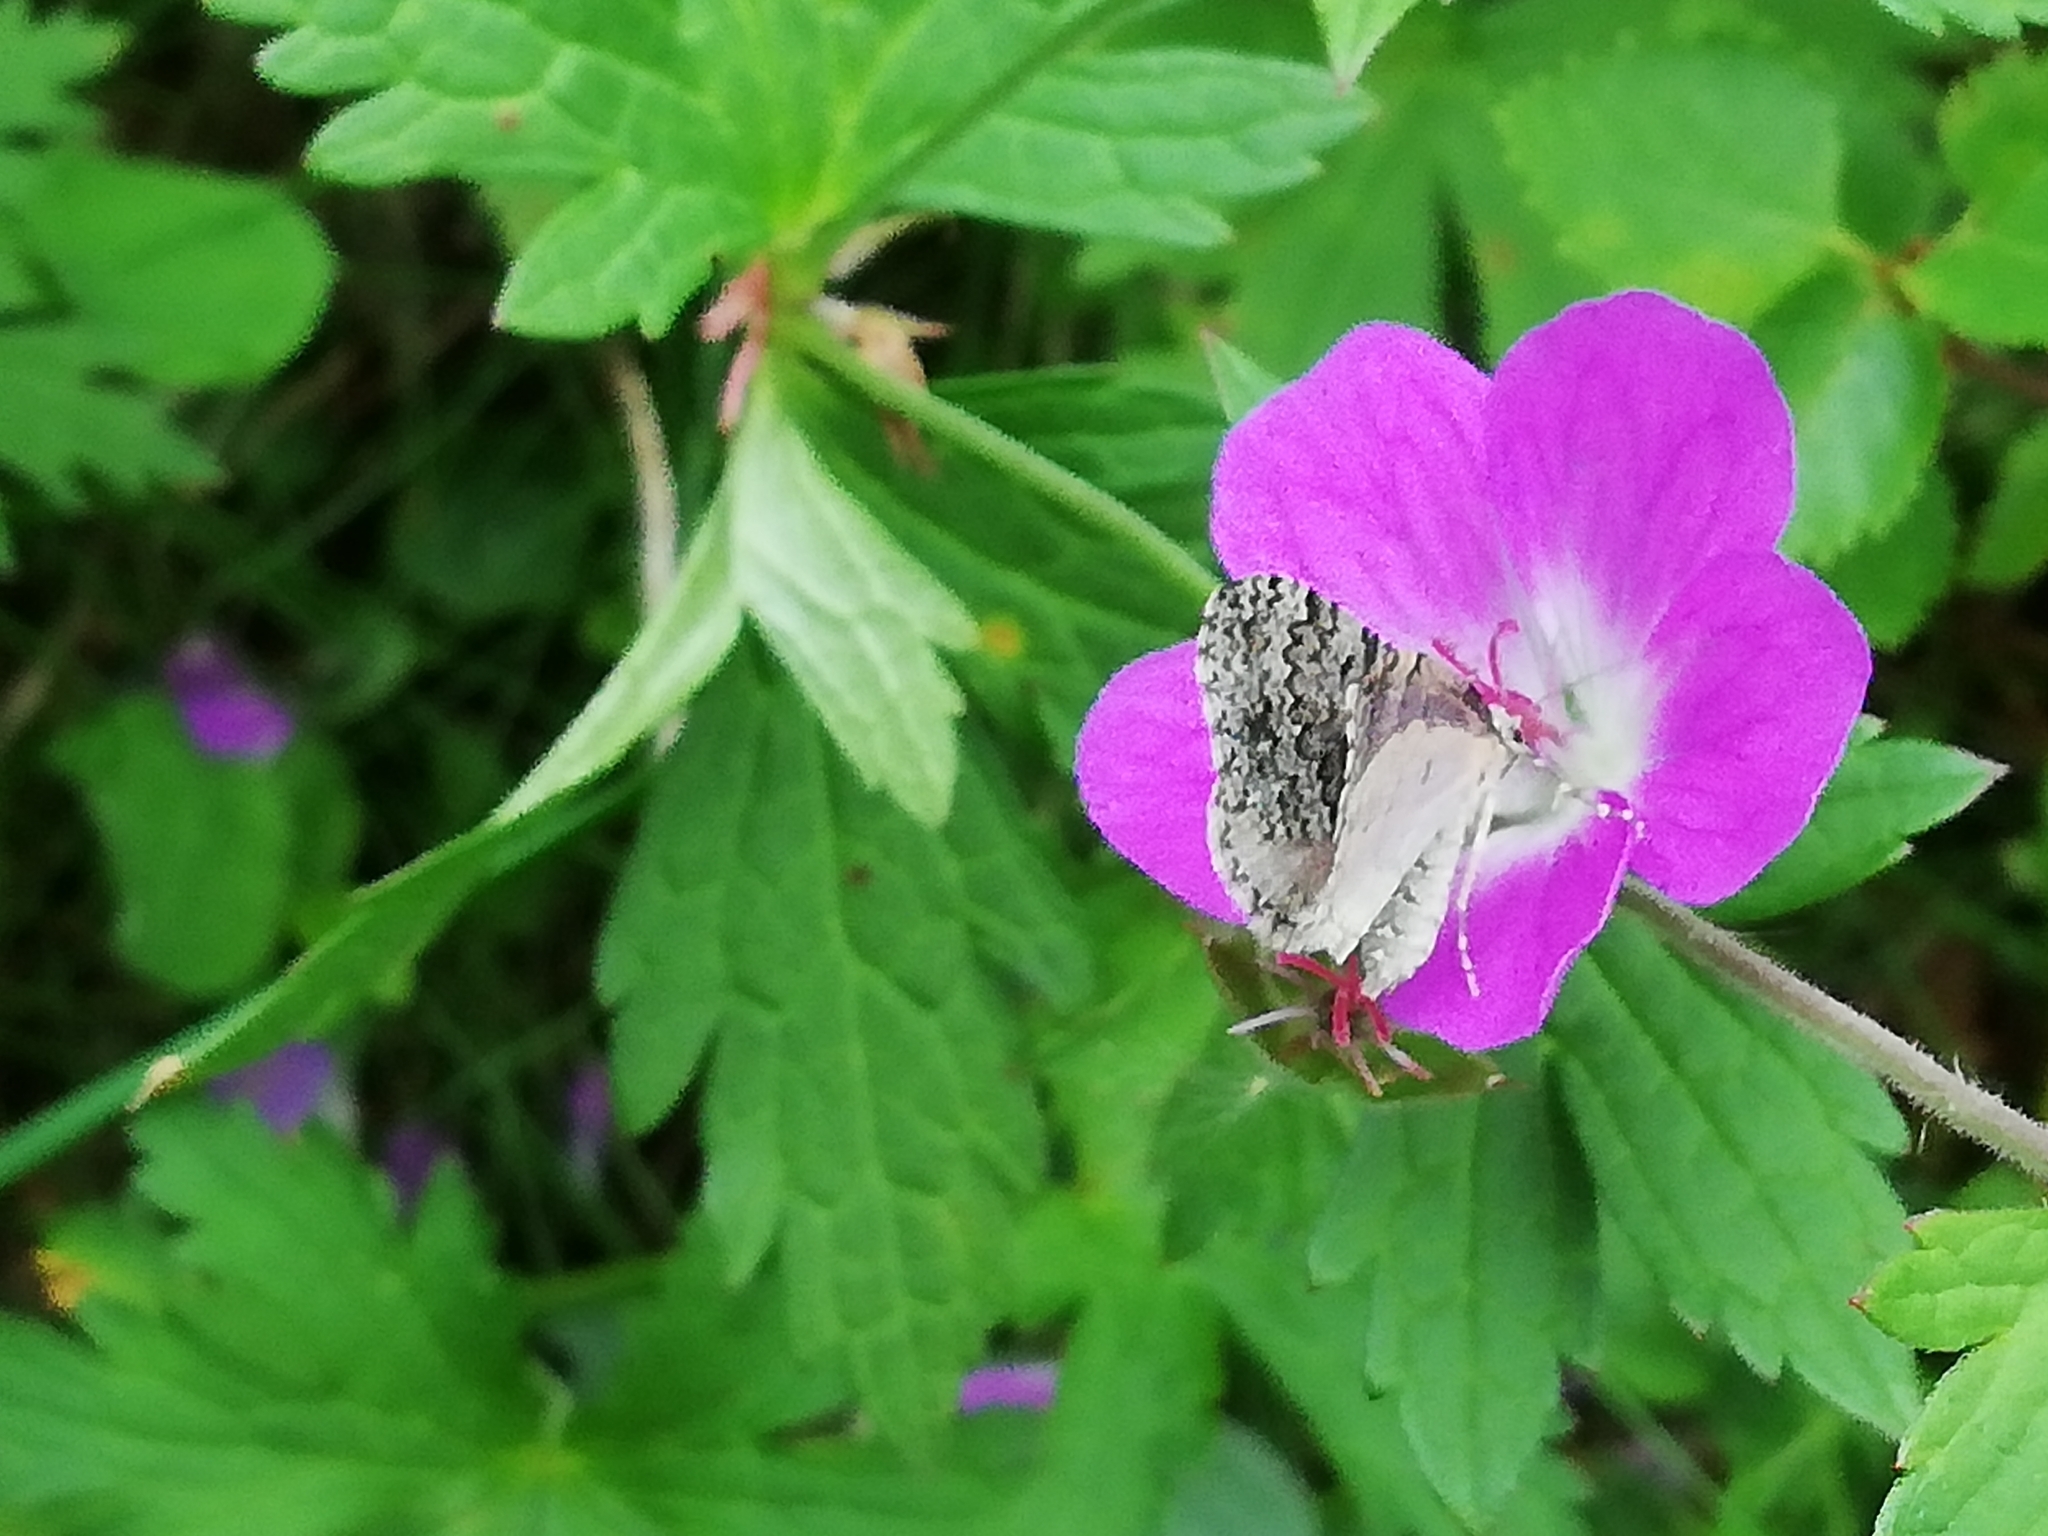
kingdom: Animalia
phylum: Arthropoda
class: Insecta
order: Lepidoptera
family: Geometridae
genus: Entephria
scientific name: Entephria caesiata
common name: Grey mountain moth
